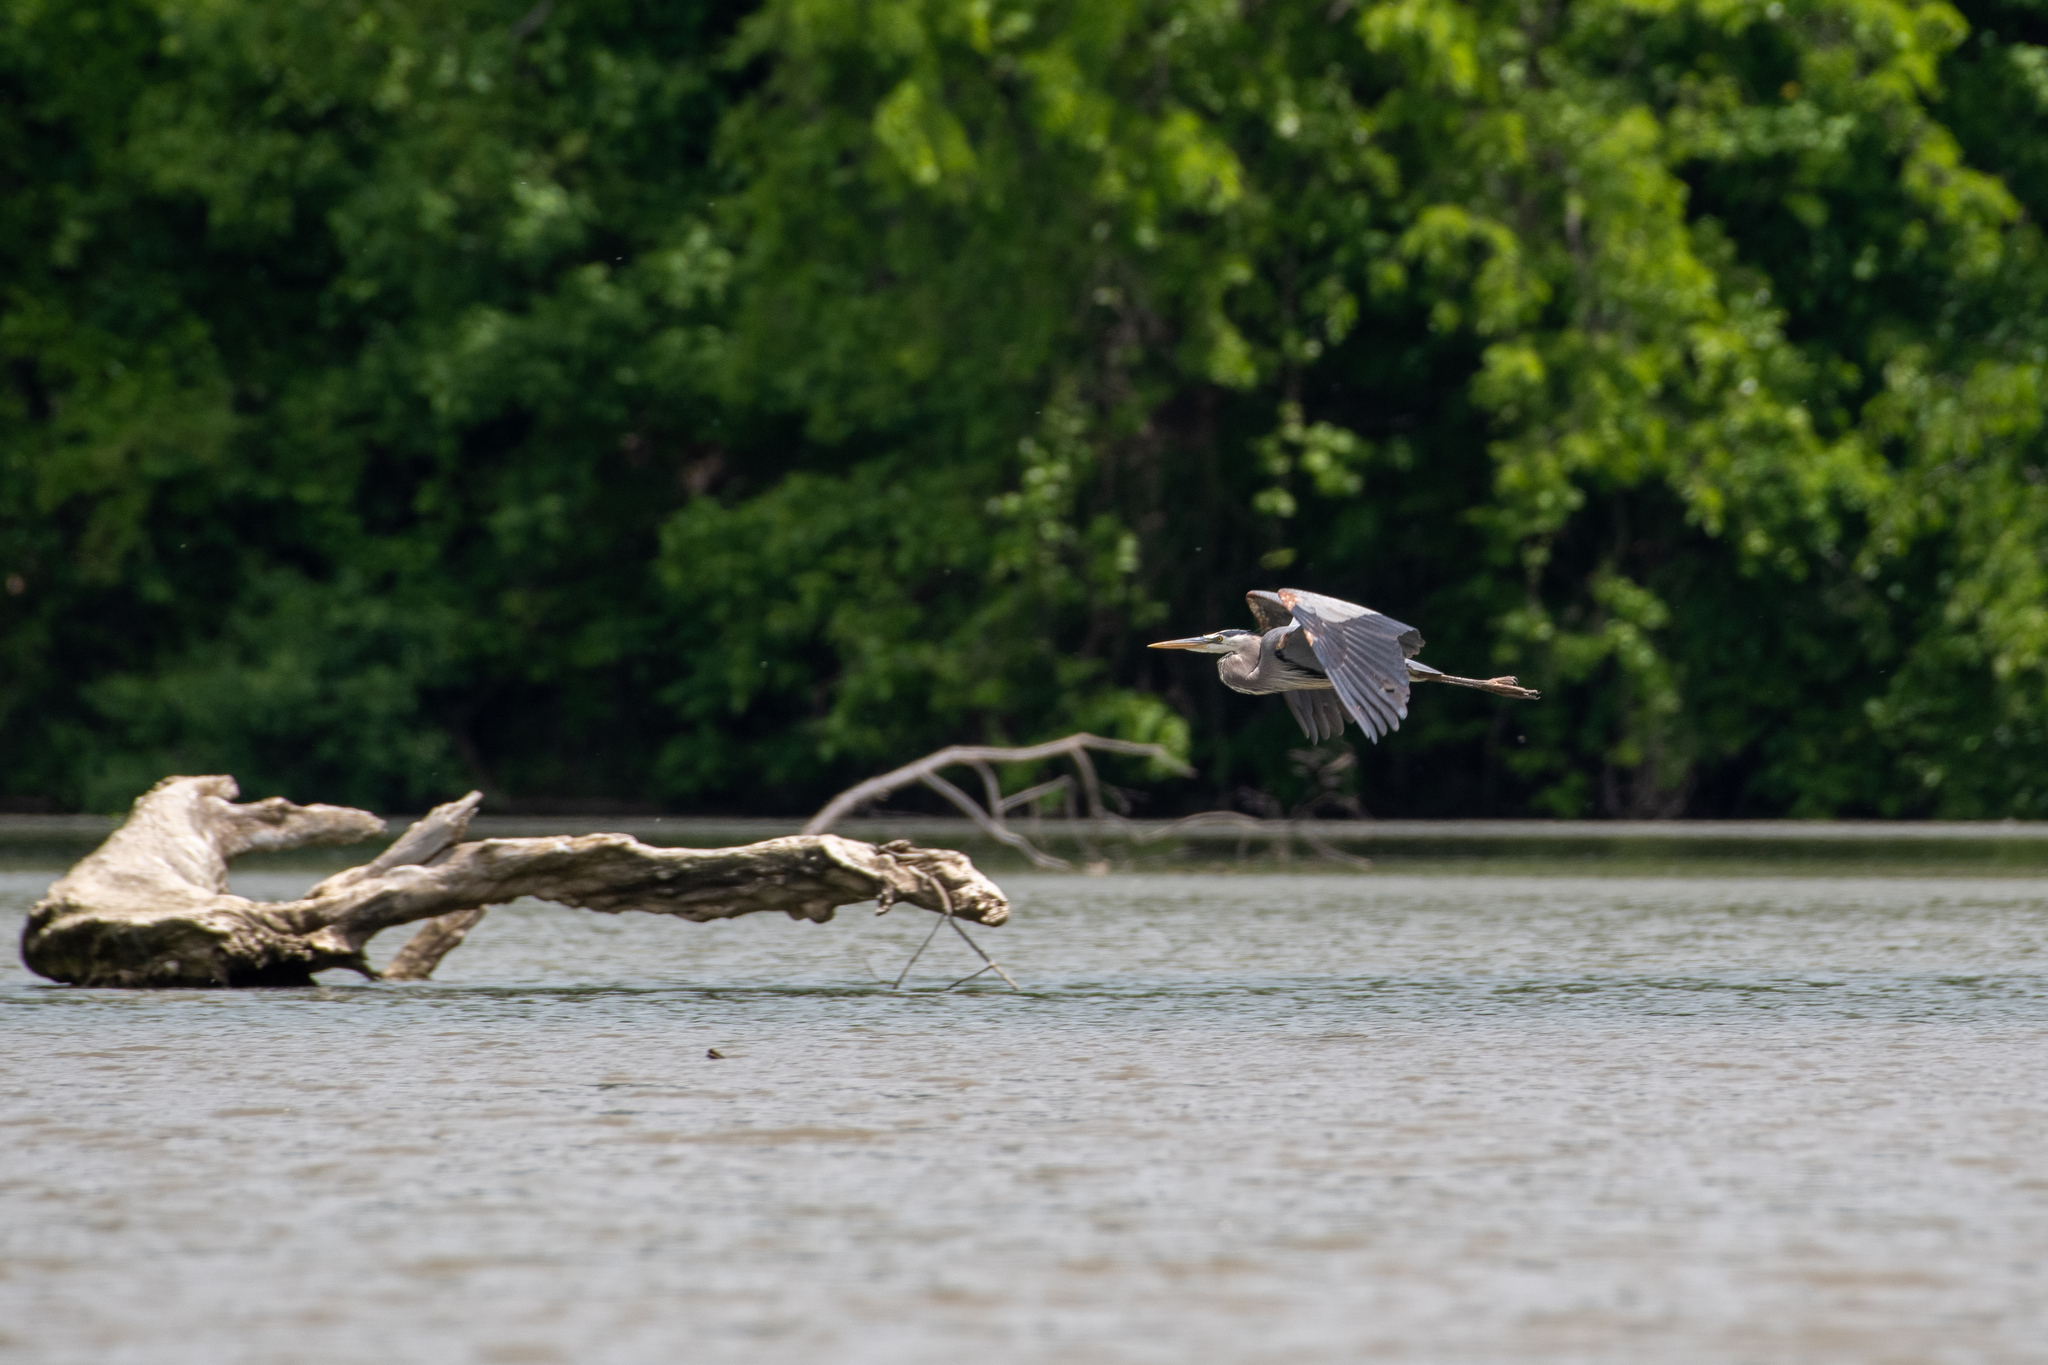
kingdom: Animalia
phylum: Chordata
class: Aves
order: Pelecaniformes
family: Ardeidae
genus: Ardea
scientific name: Ardea herodias
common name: Great blue heron
